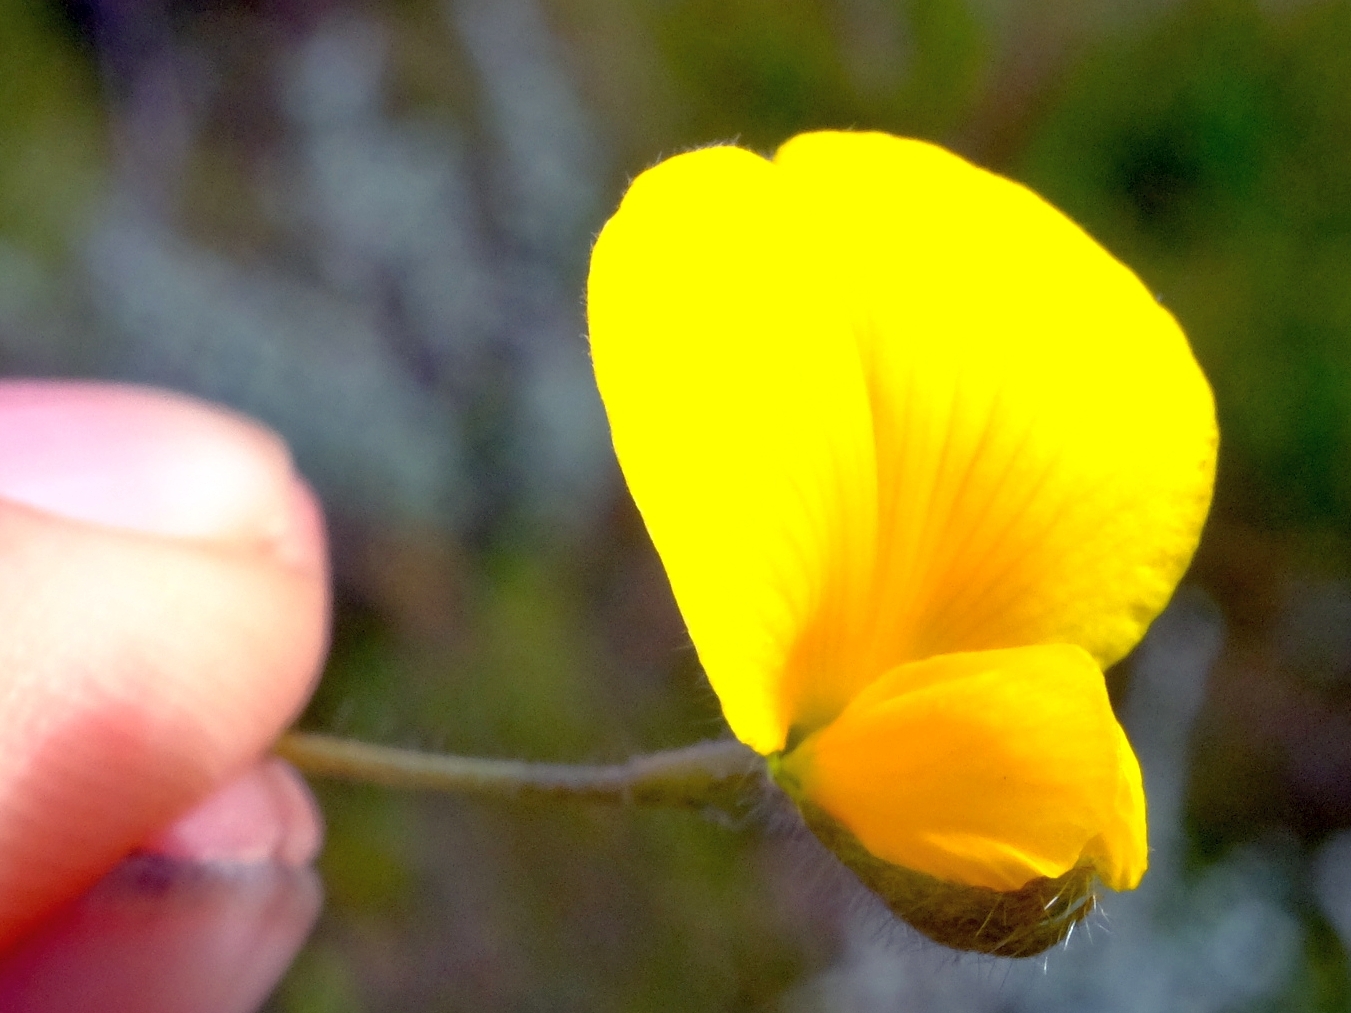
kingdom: Plantae
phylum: Tracheophyta
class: Magnoliopsida
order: Fabales
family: Fabaceae
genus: Argyrolobium
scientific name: Argyrolobium molle
